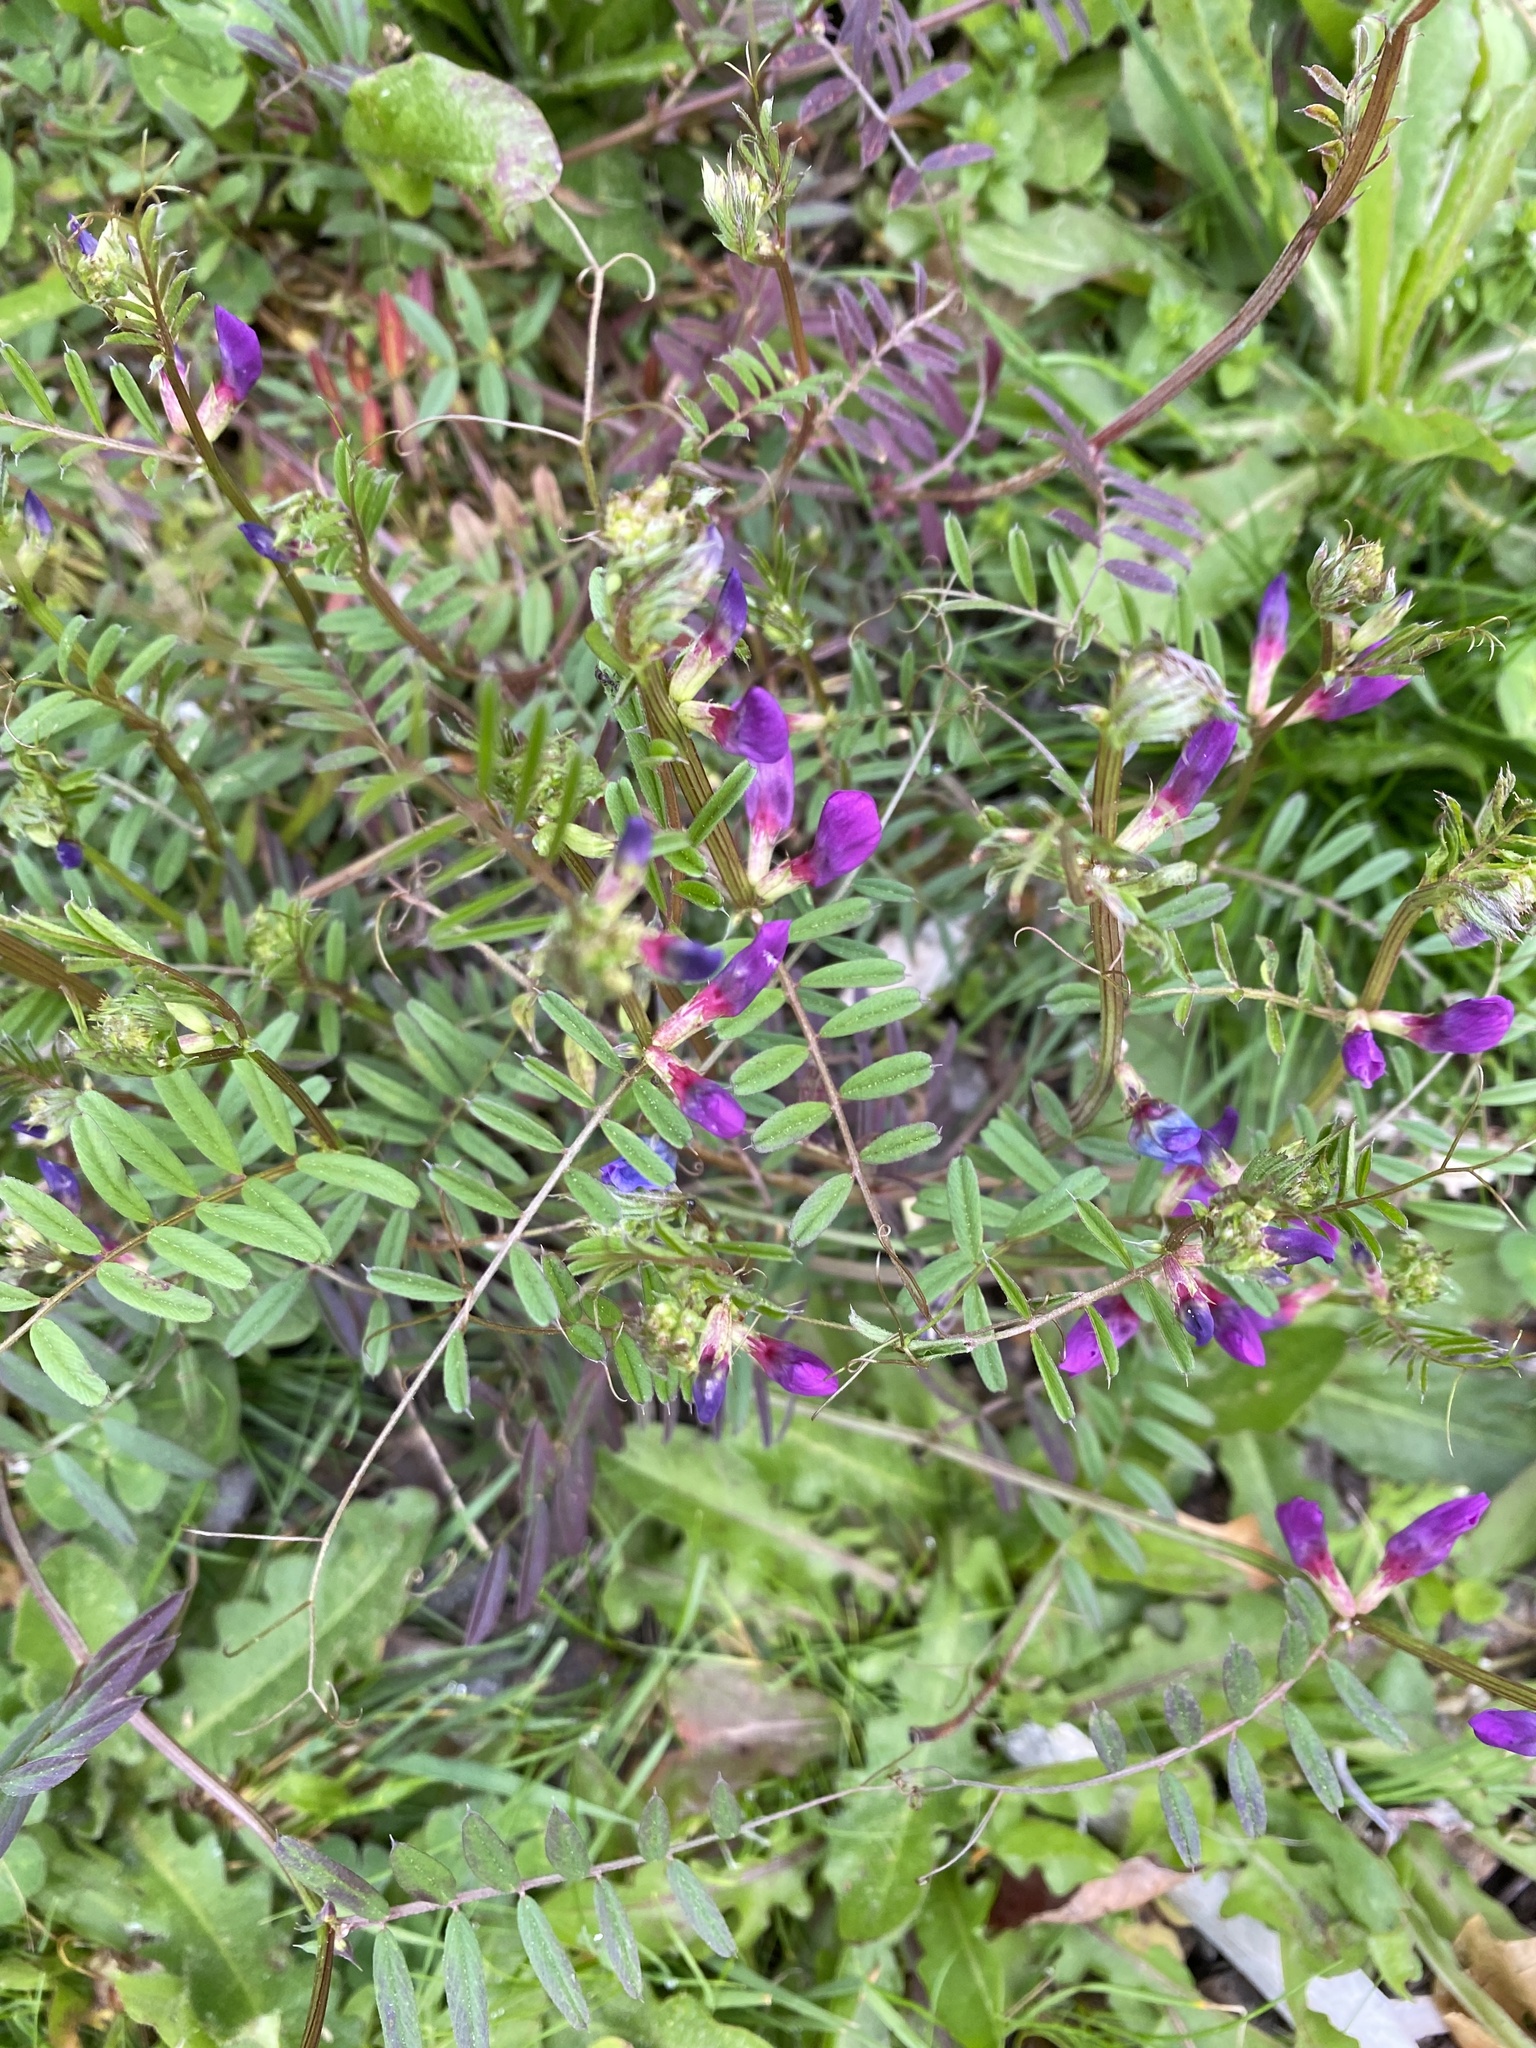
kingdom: Plantae
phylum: Tracheophyta
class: Magnoliopsida
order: Fabales
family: Fabaceae
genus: Vicia
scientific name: Vicia sativa
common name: Garden vetch
